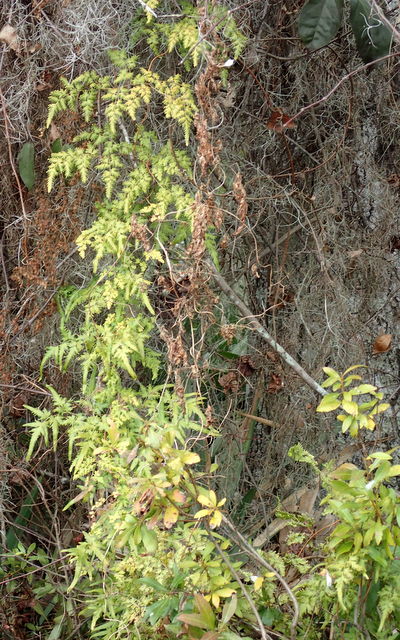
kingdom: Plantae
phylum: Tracheophyta
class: Polypodiopsida
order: Schizaeales
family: Lygodiaceae
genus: Lygodium
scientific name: Lygodium japonicum
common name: Japanese climbing fern
